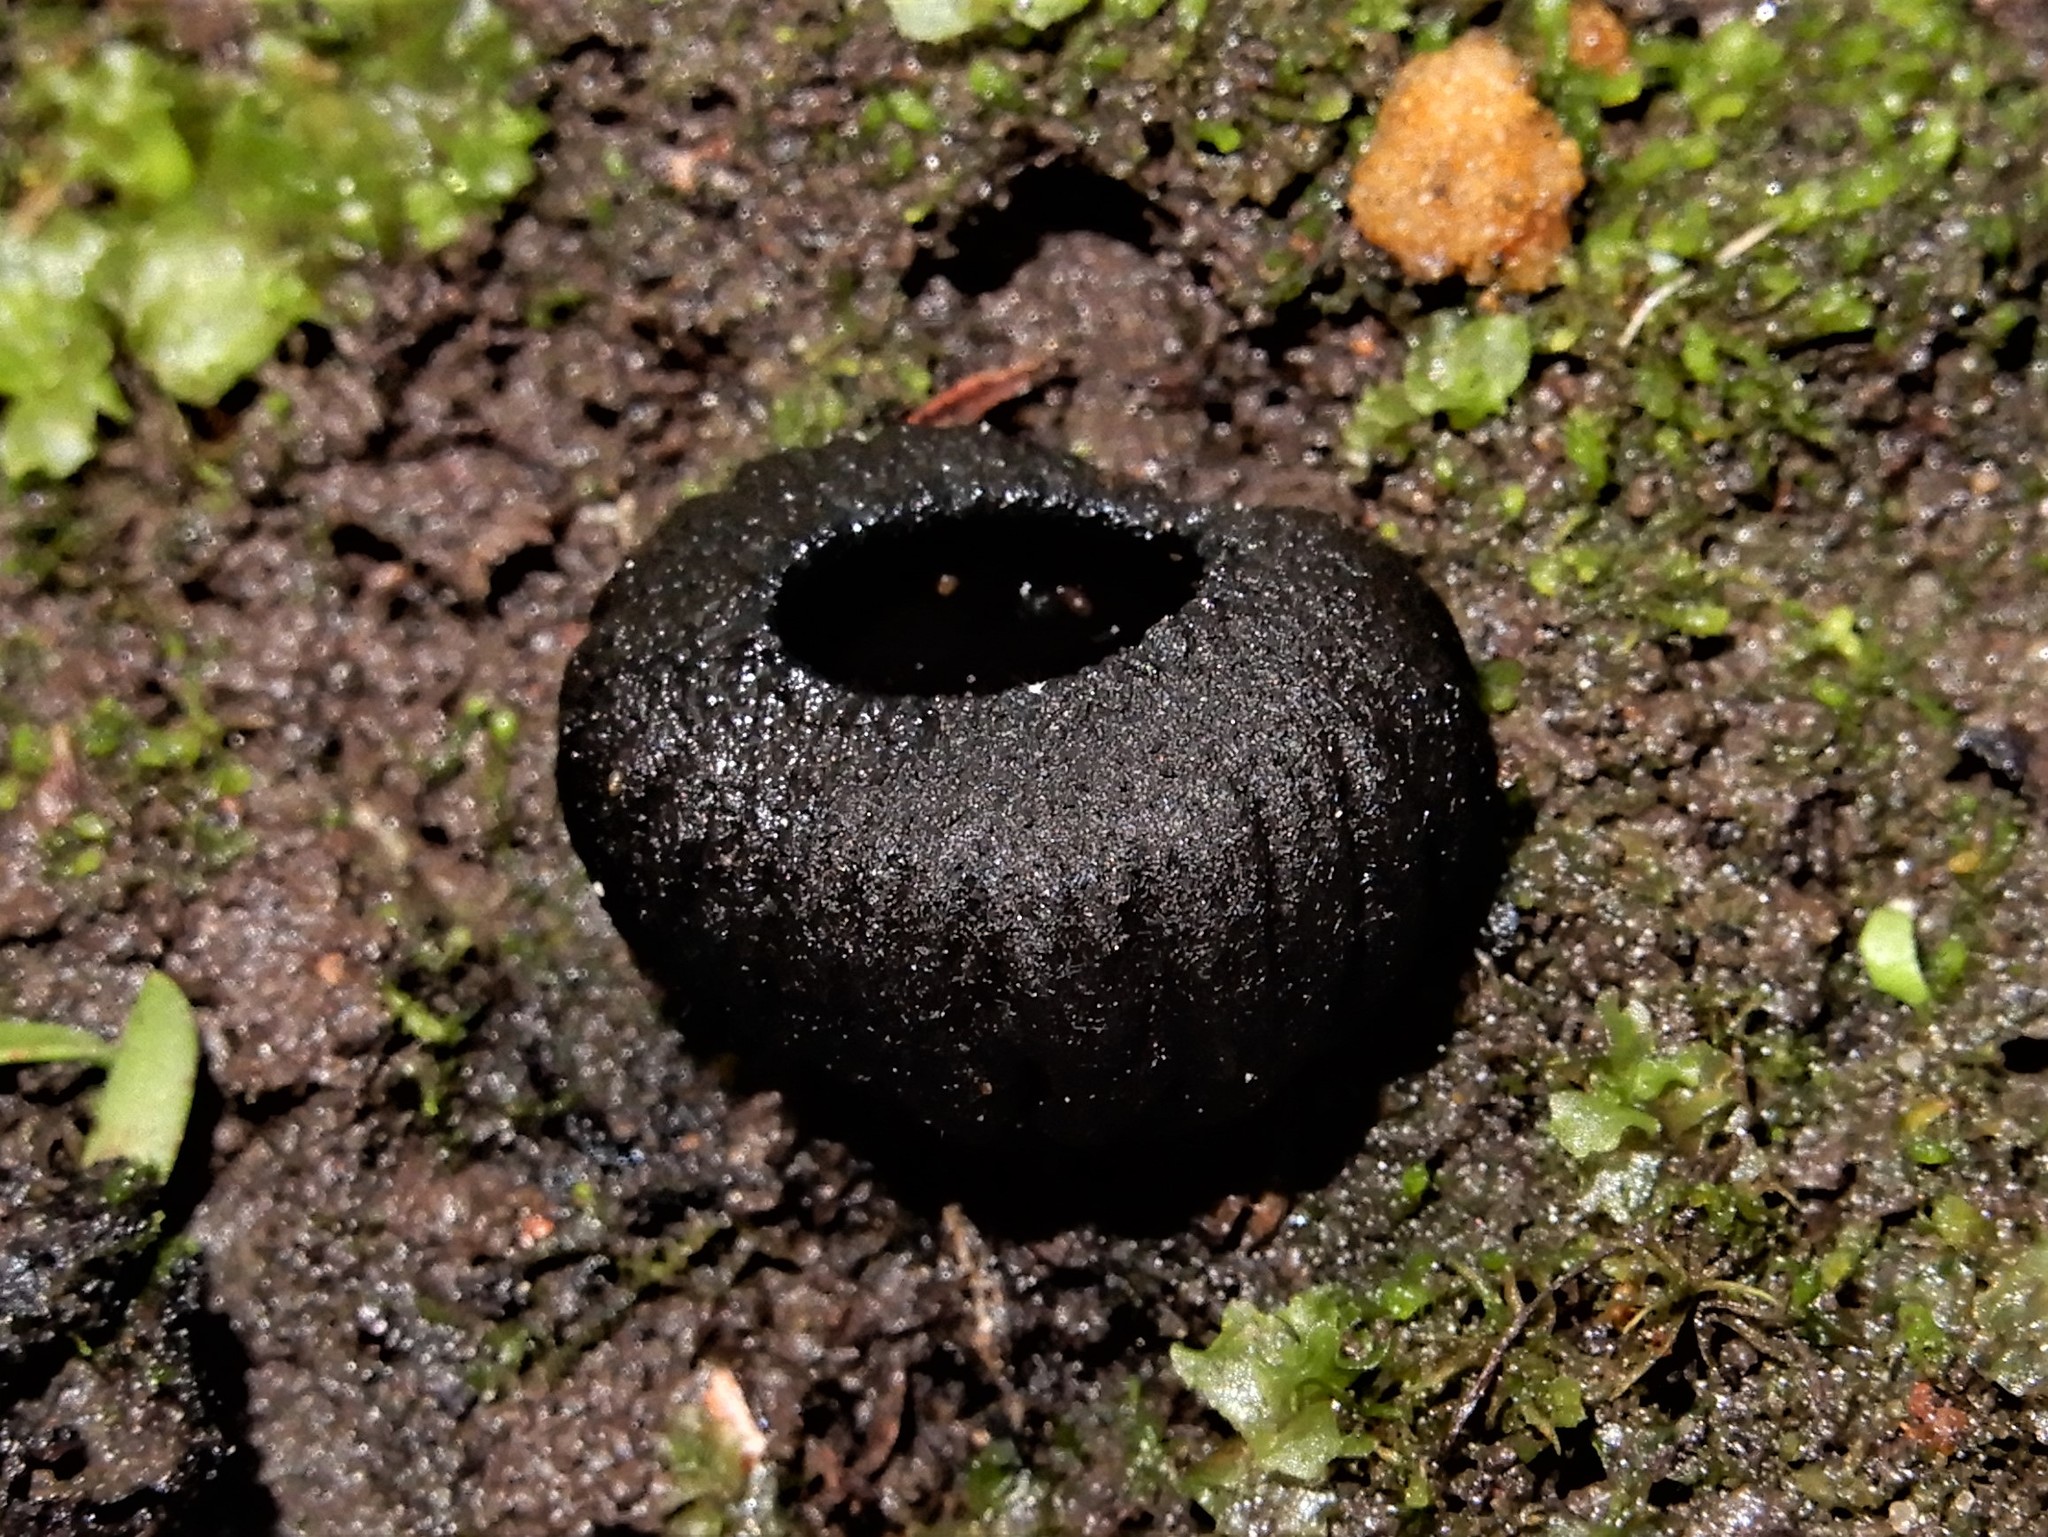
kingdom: Fungi
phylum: Ascomycota
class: Pezizomycetes
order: Pezizales
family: Sarcosomataceae
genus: Plectania
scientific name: Plectania rhytidia
